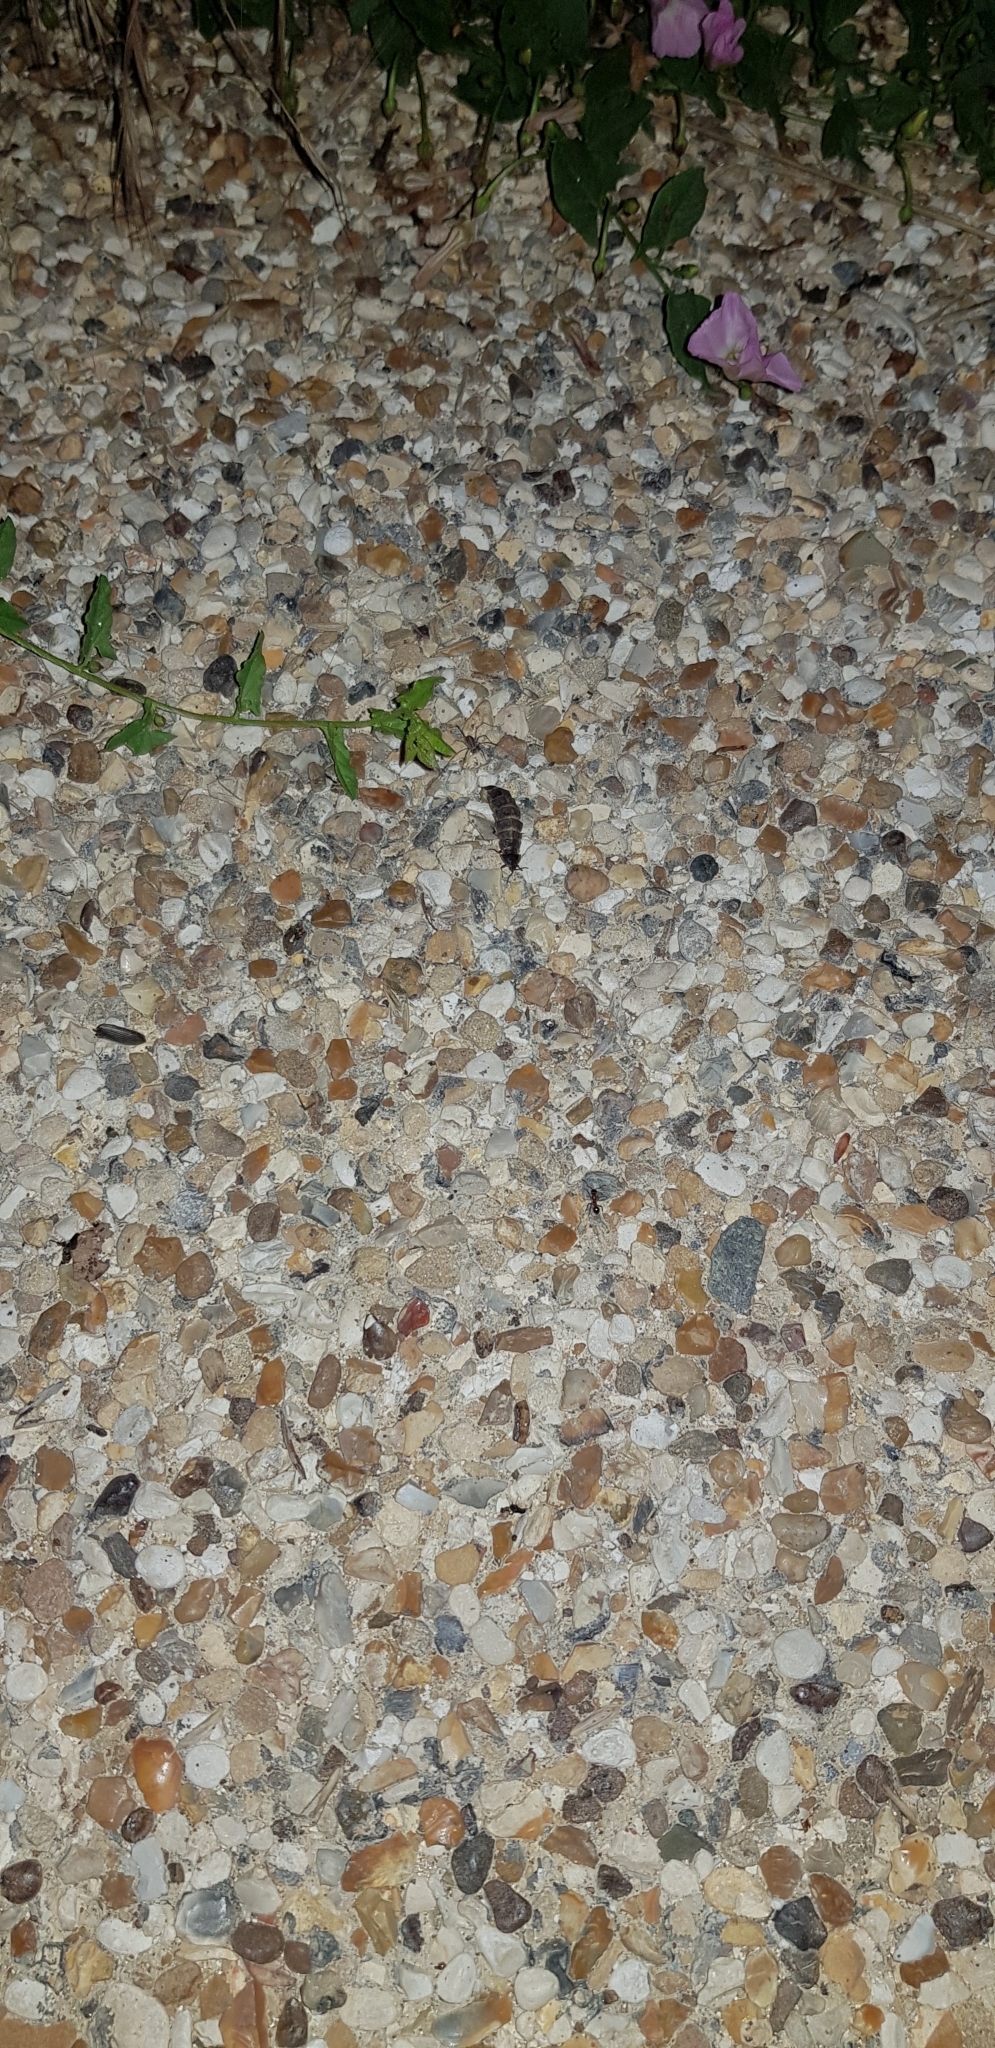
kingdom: Animalia
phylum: Arthropoda
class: Insecta
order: Coleoptera
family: Lampyridae
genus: Lampyris
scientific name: Lampyris noctiluca
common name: Glow-worm
